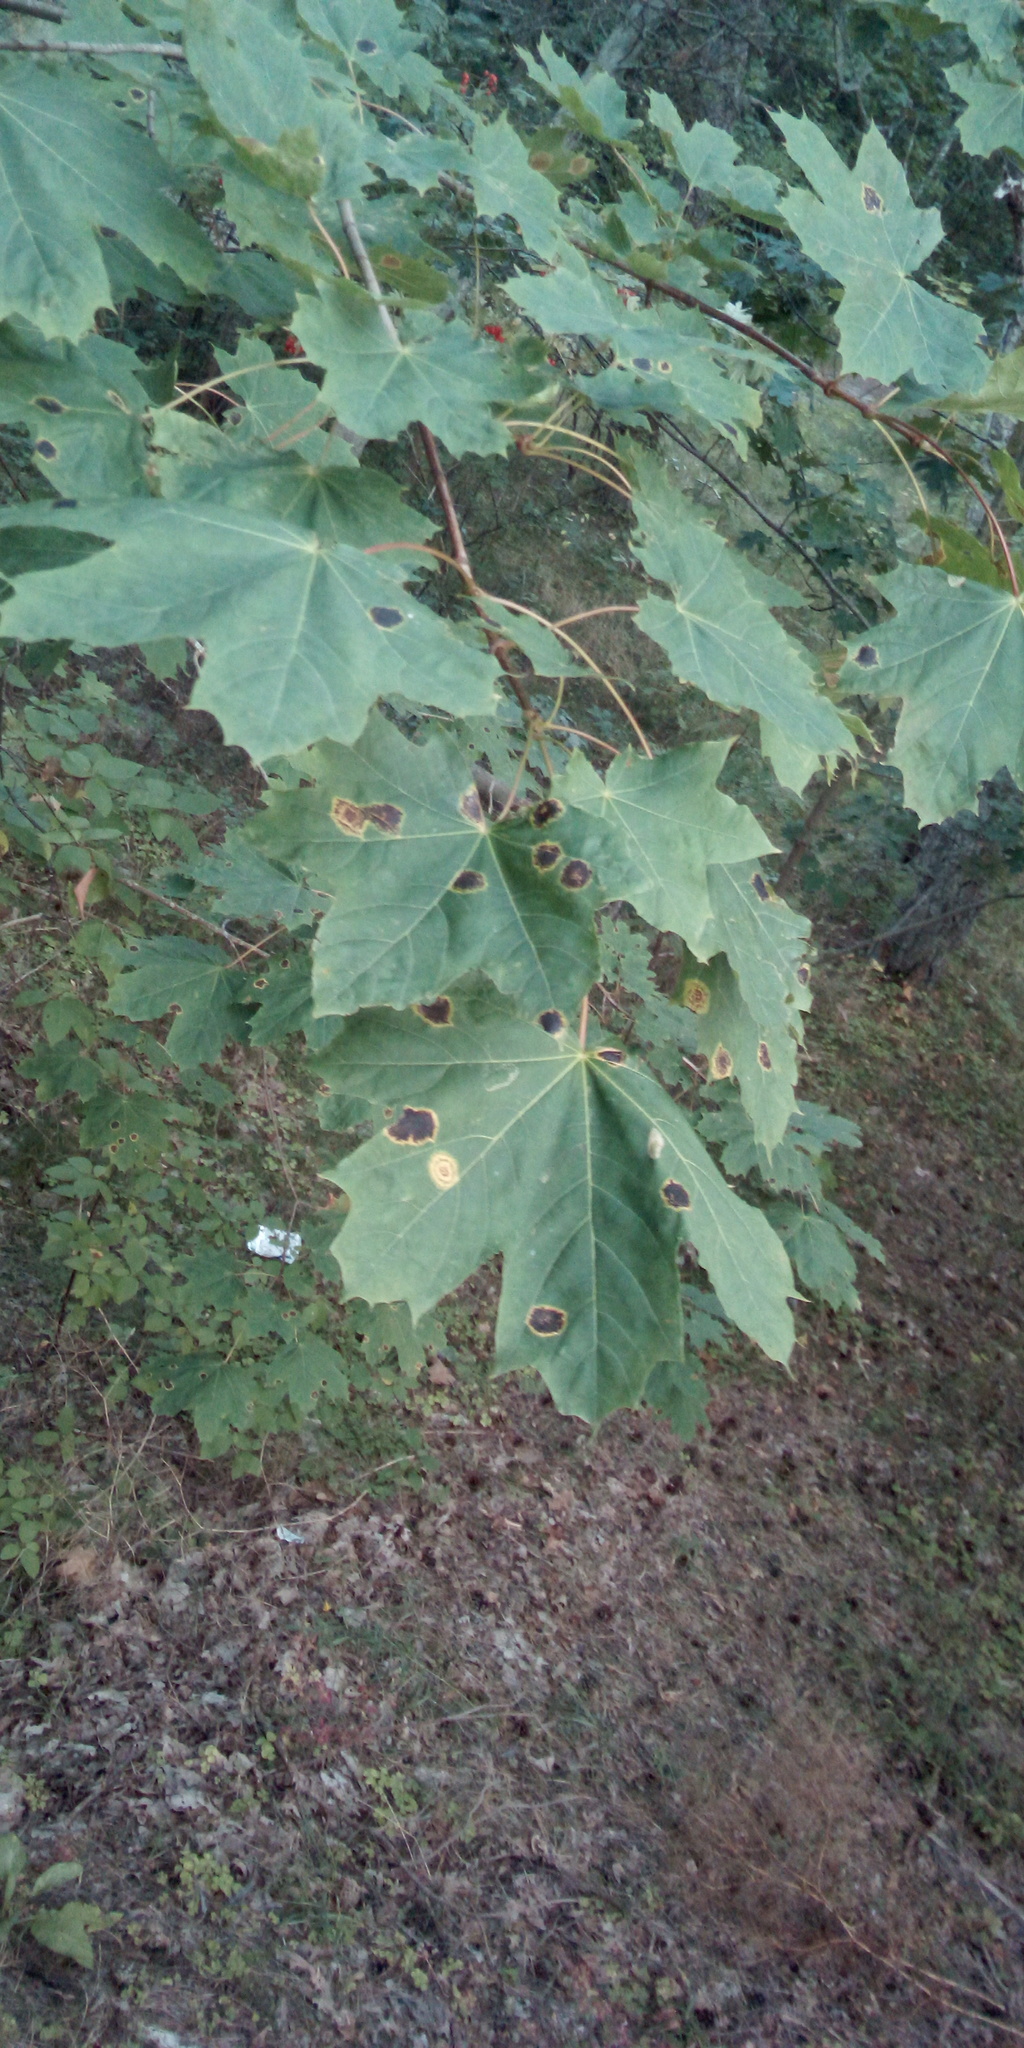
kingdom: Plantae
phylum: Tracheophyta
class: Magnoliopsida
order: Sapindales
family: Sapindaceae
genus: Acer
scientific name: Acer platanoides
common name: Norway maple
